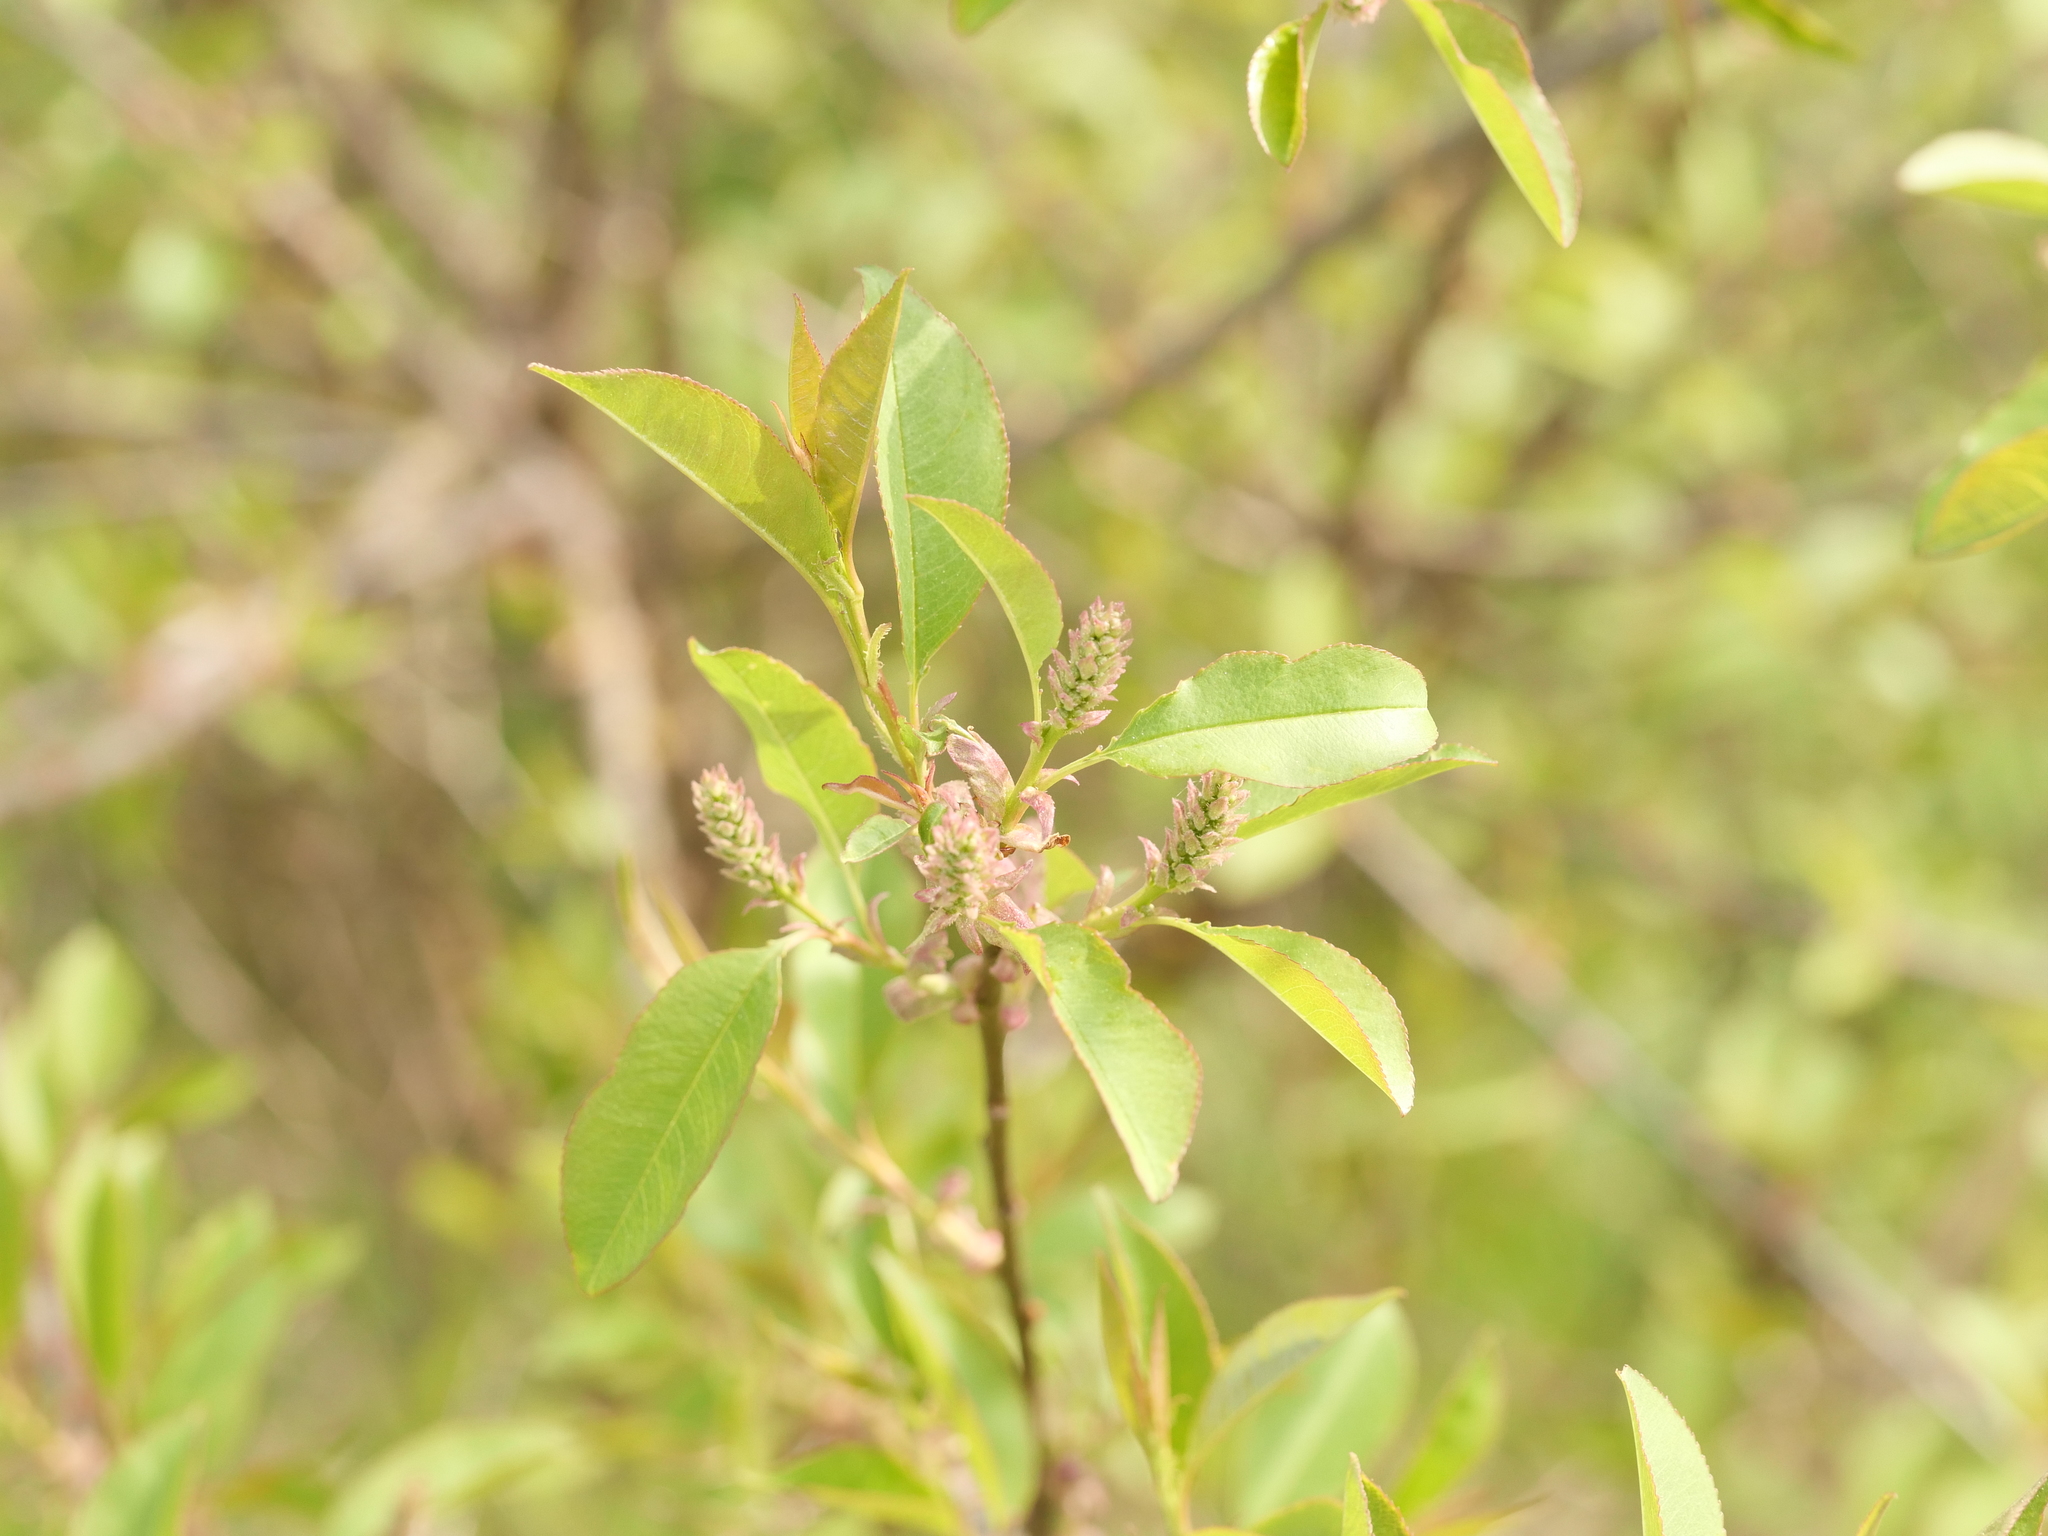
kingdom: Plantae
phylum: Tracheophyta
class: Magnoliopsida
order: Rosales
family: Rosaceae
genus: Prunus
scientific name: Prunus serotina
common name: Black cherry
